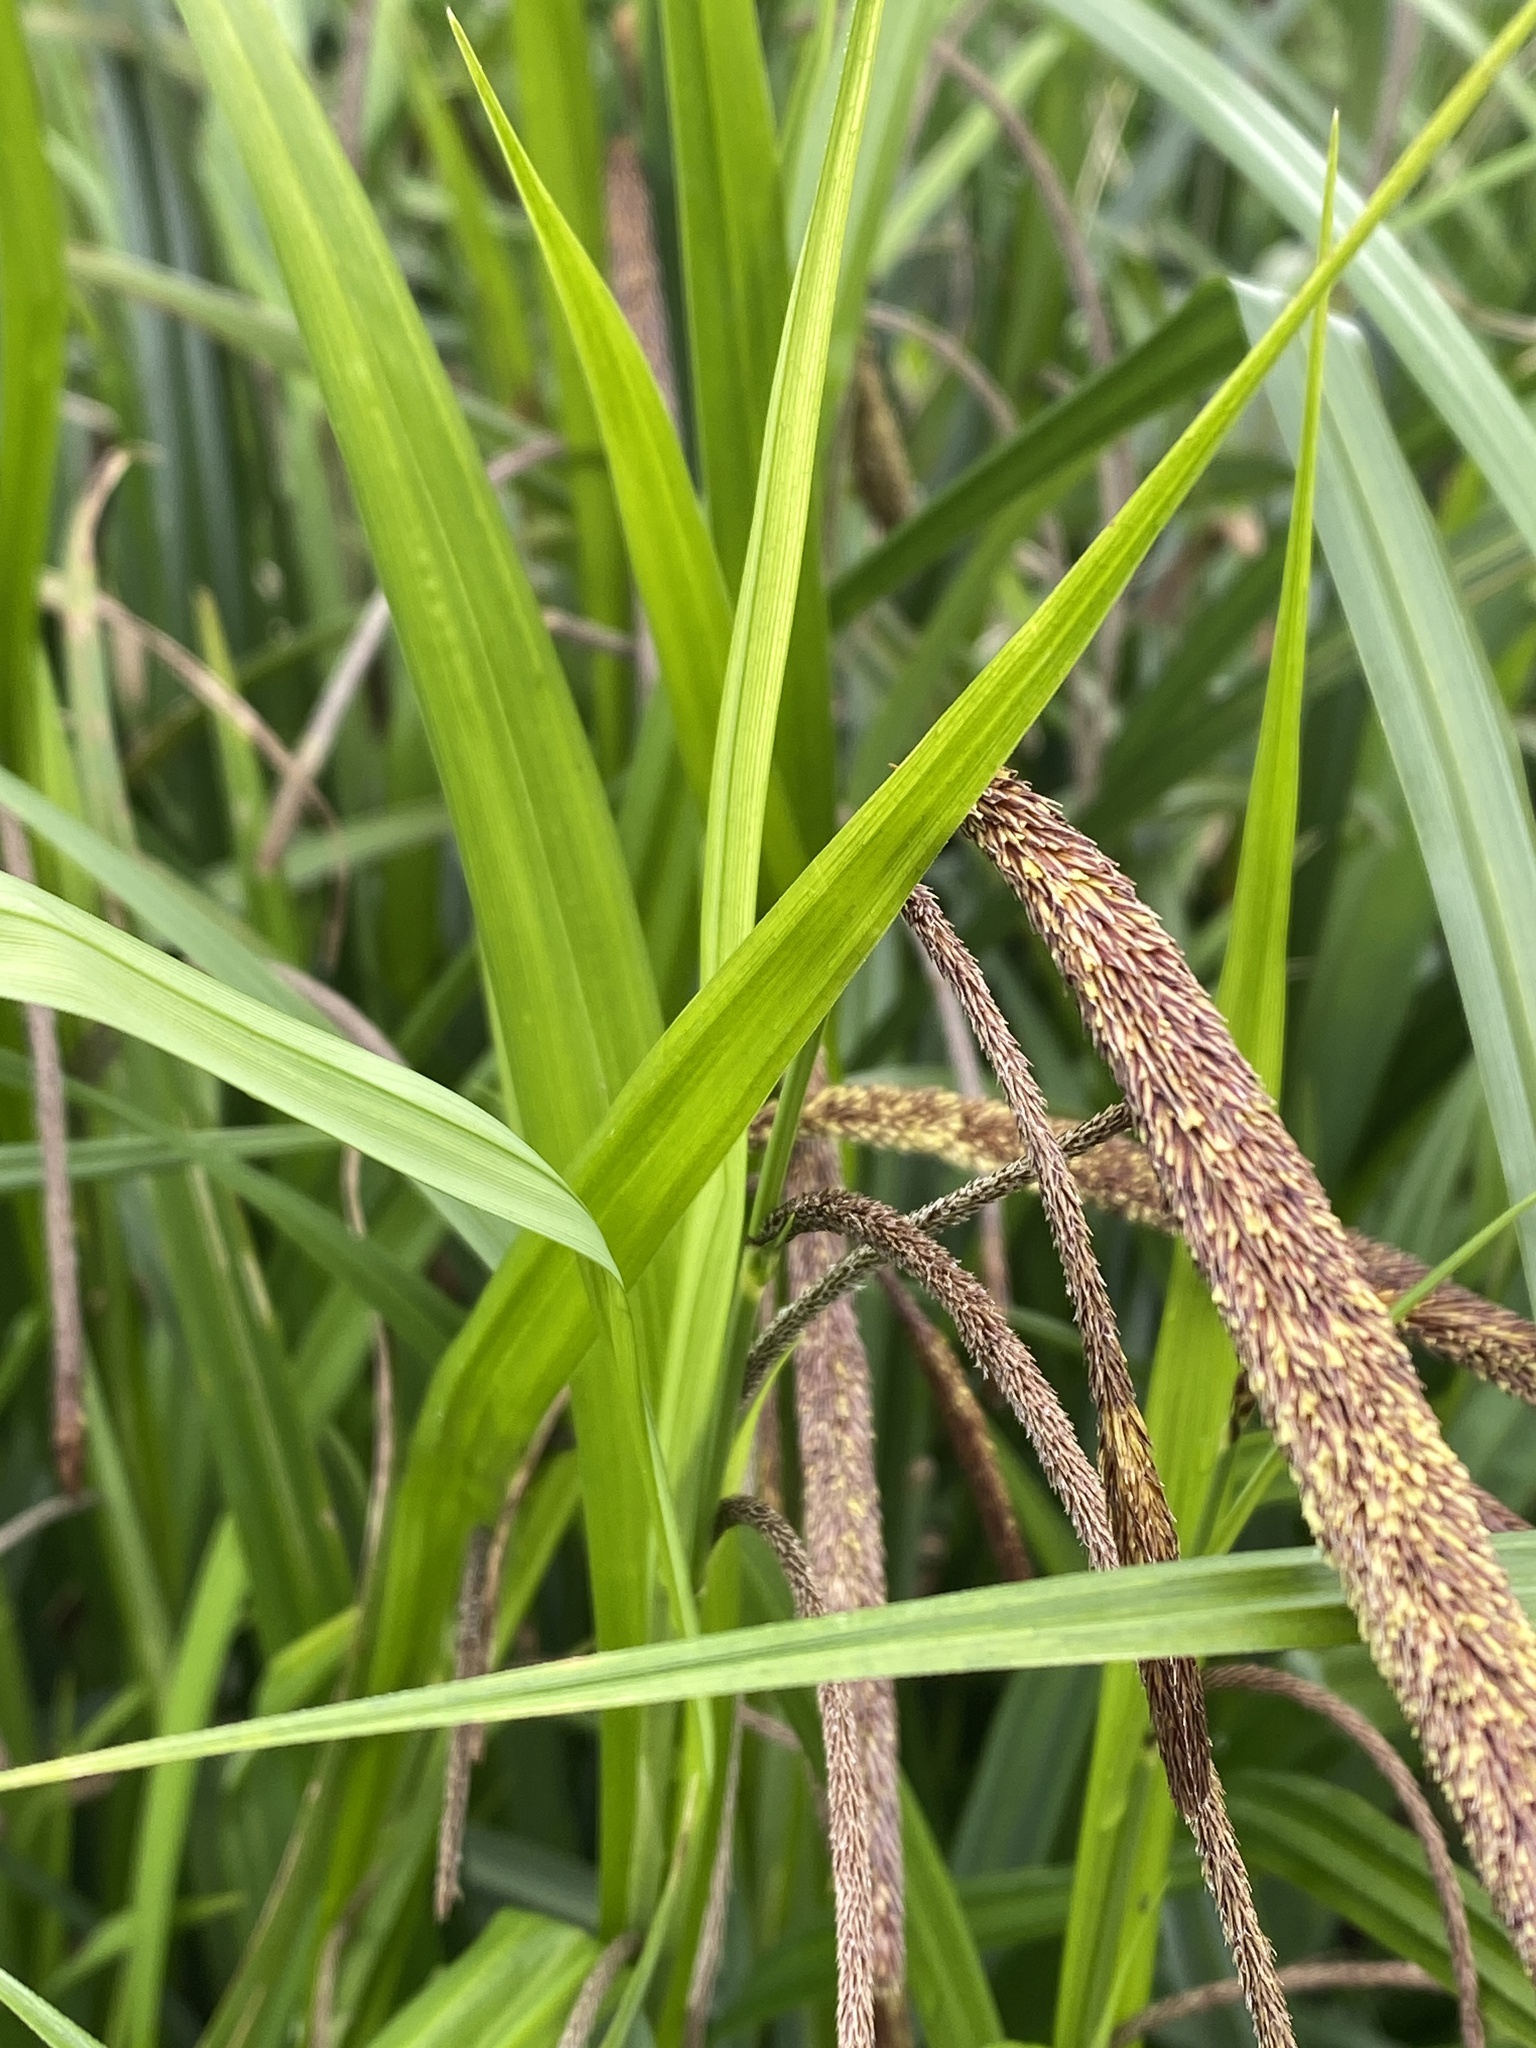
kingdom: Plantae
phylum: Tracheophyta
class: Liliopsida
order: Poales
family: Cyperaceae
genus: Carex
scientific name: Carex pendula
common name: Pendulous sedge
